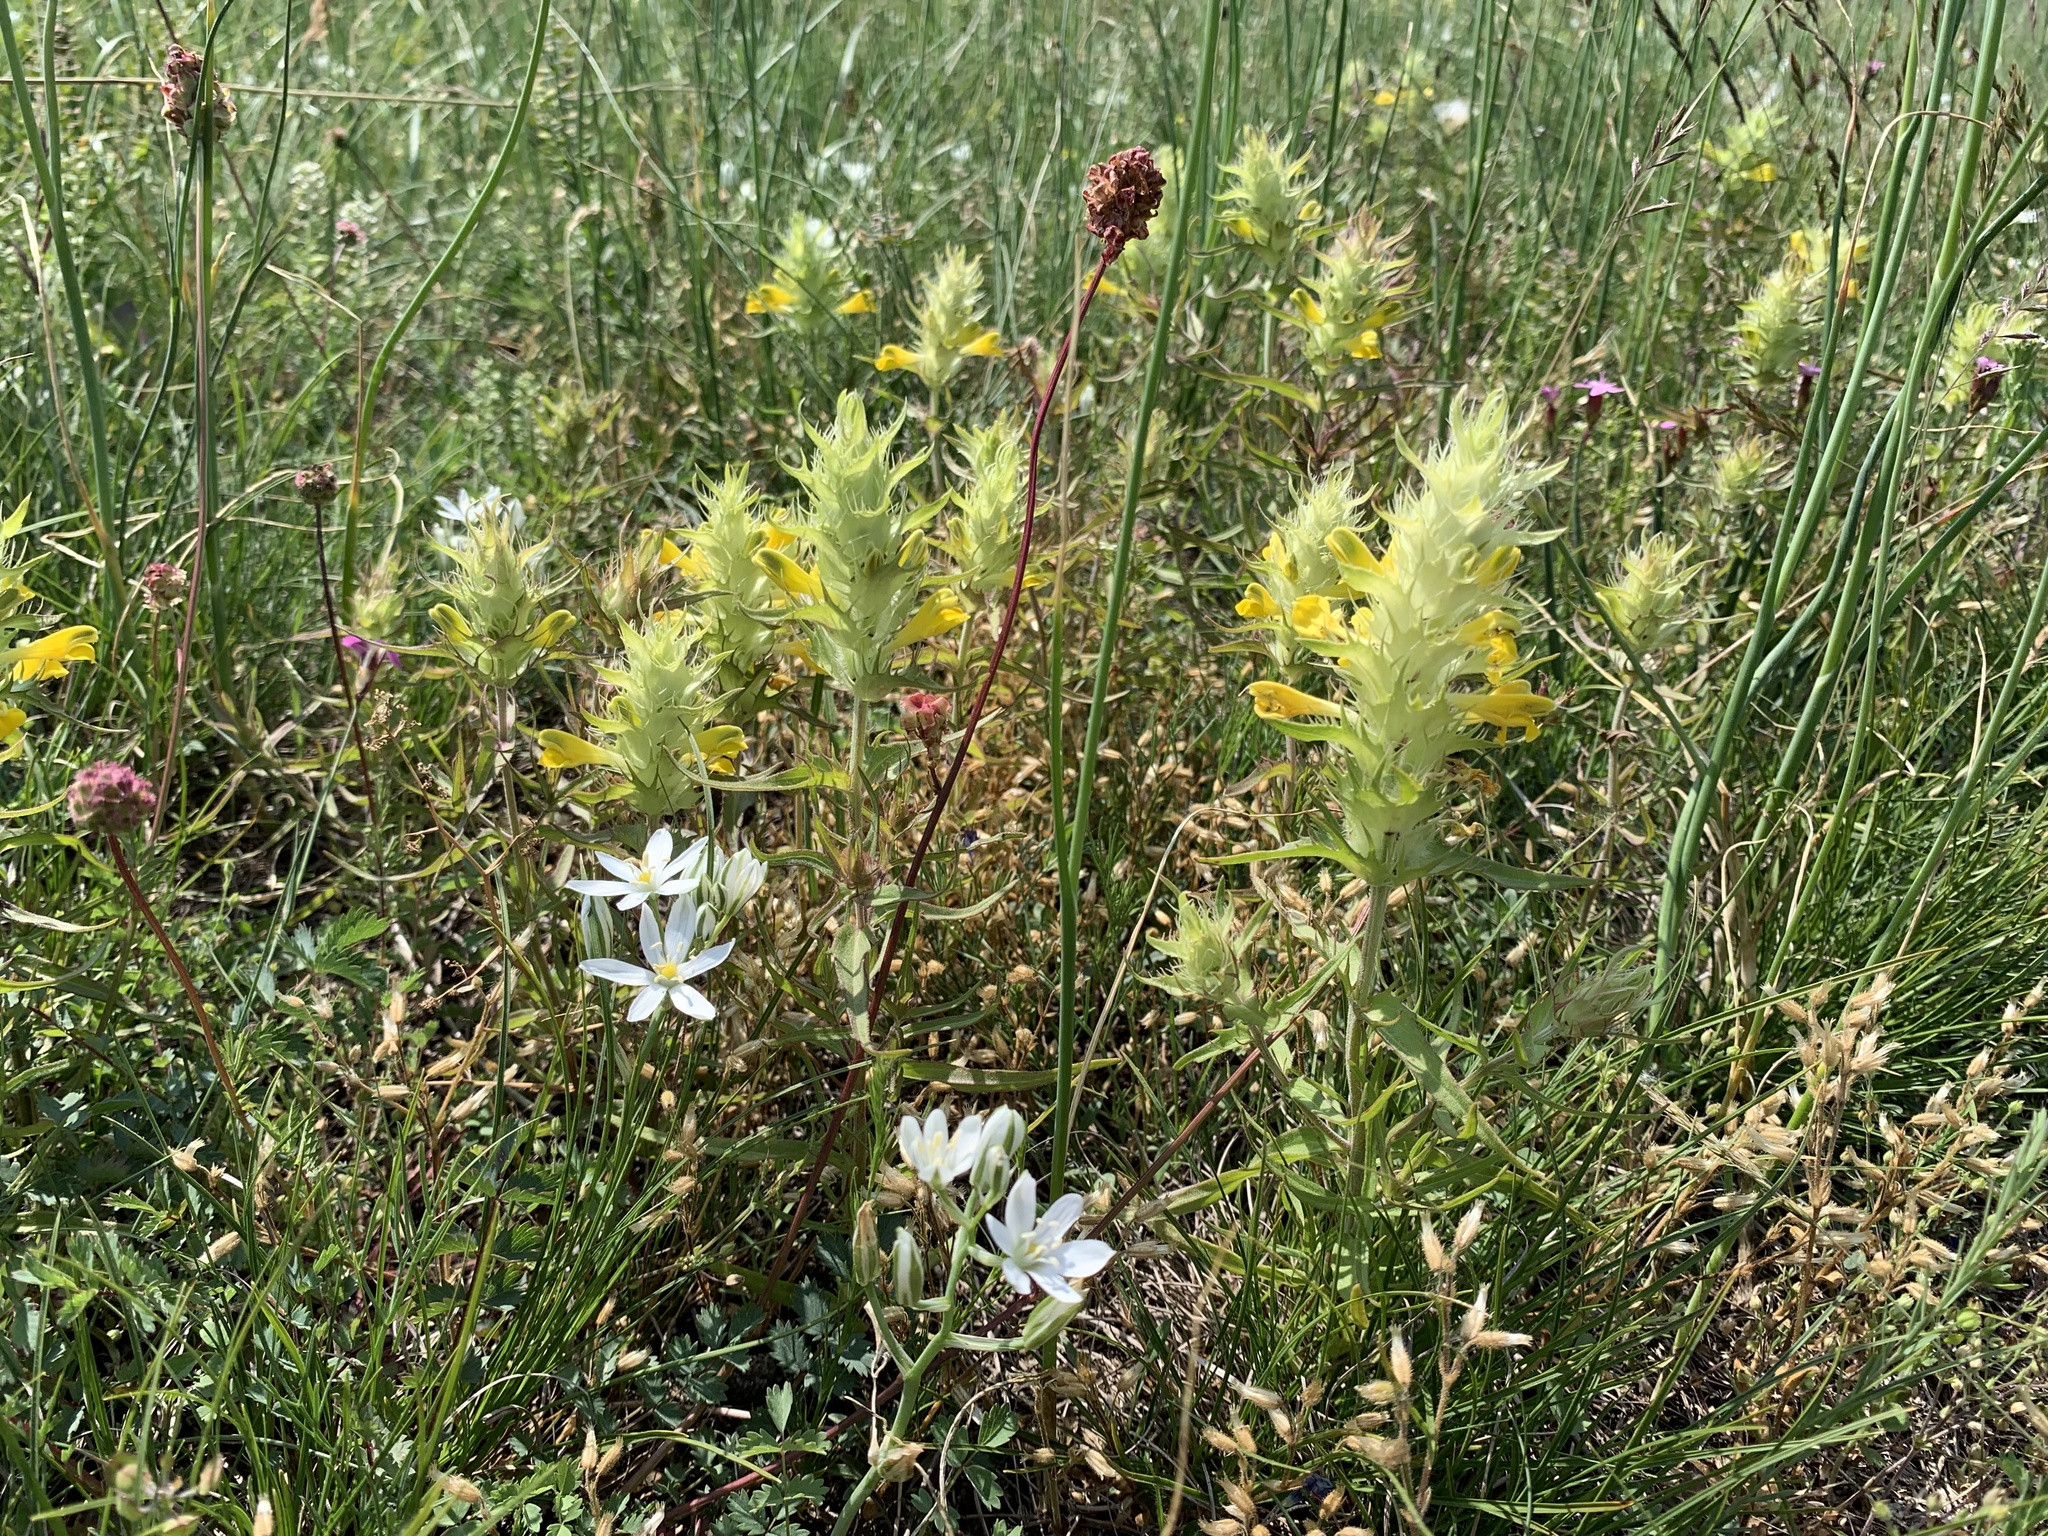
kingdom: Plantae
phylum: Tracheophyta
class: Magnoliopsida
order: Lamiales
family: Orobanchaceae
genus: Melampyrum
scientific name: Melampyrum barbatum
